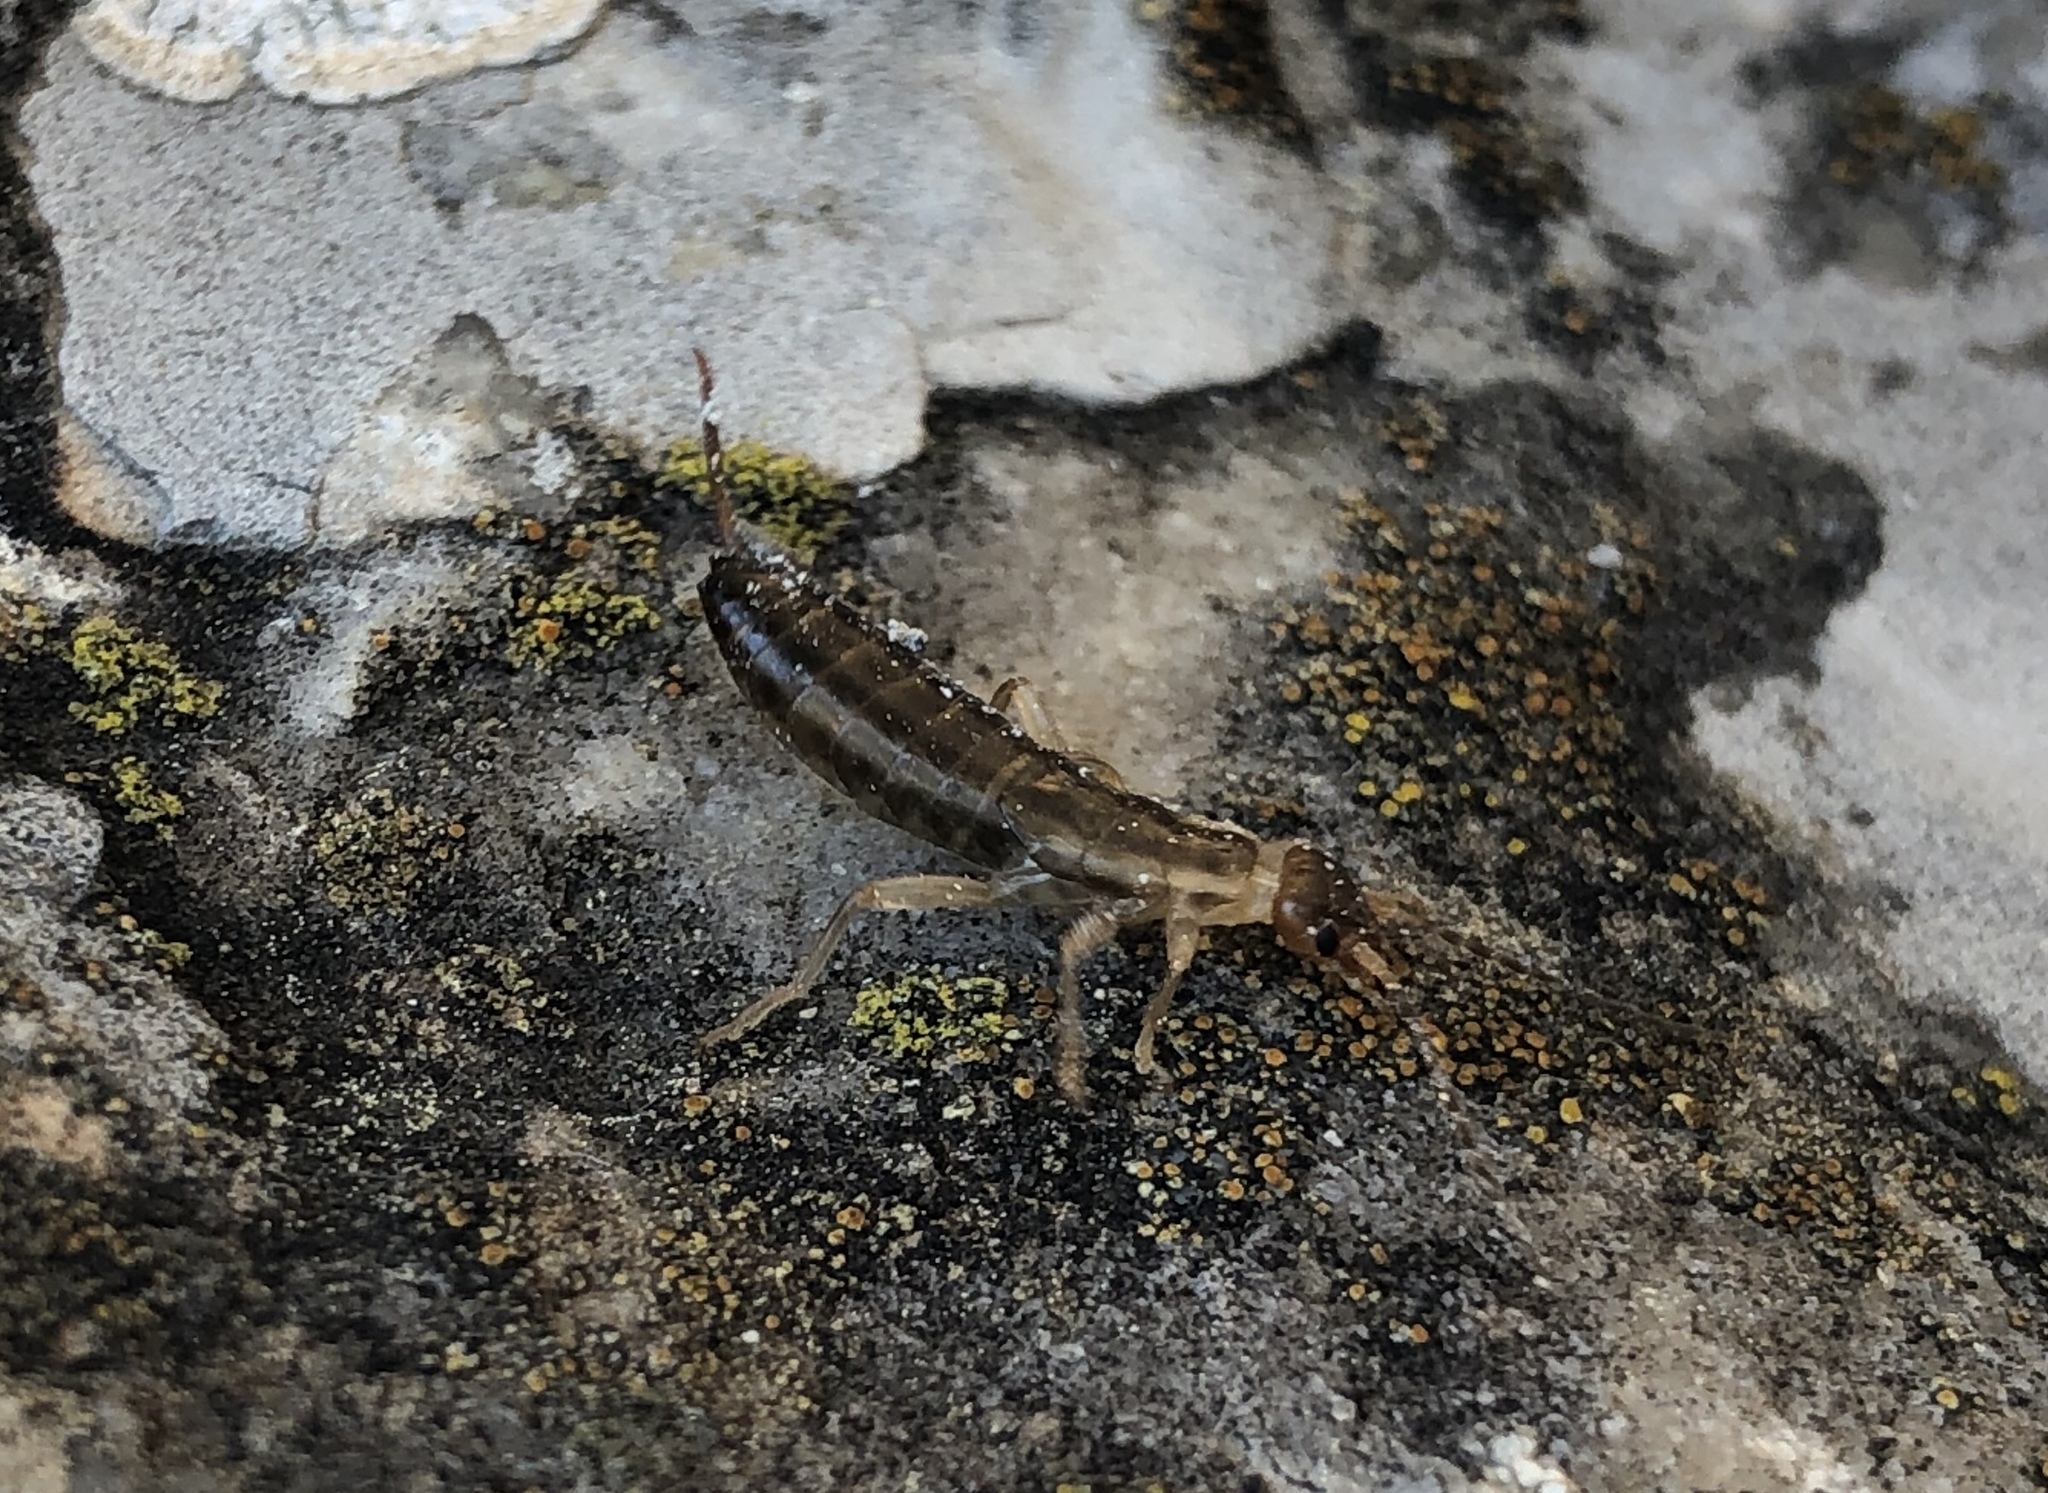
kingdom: Animalia
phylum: Arthropoda
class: Insecta
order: Dermaptera
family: Forficulidae
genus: Forficula
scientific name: Forficula
